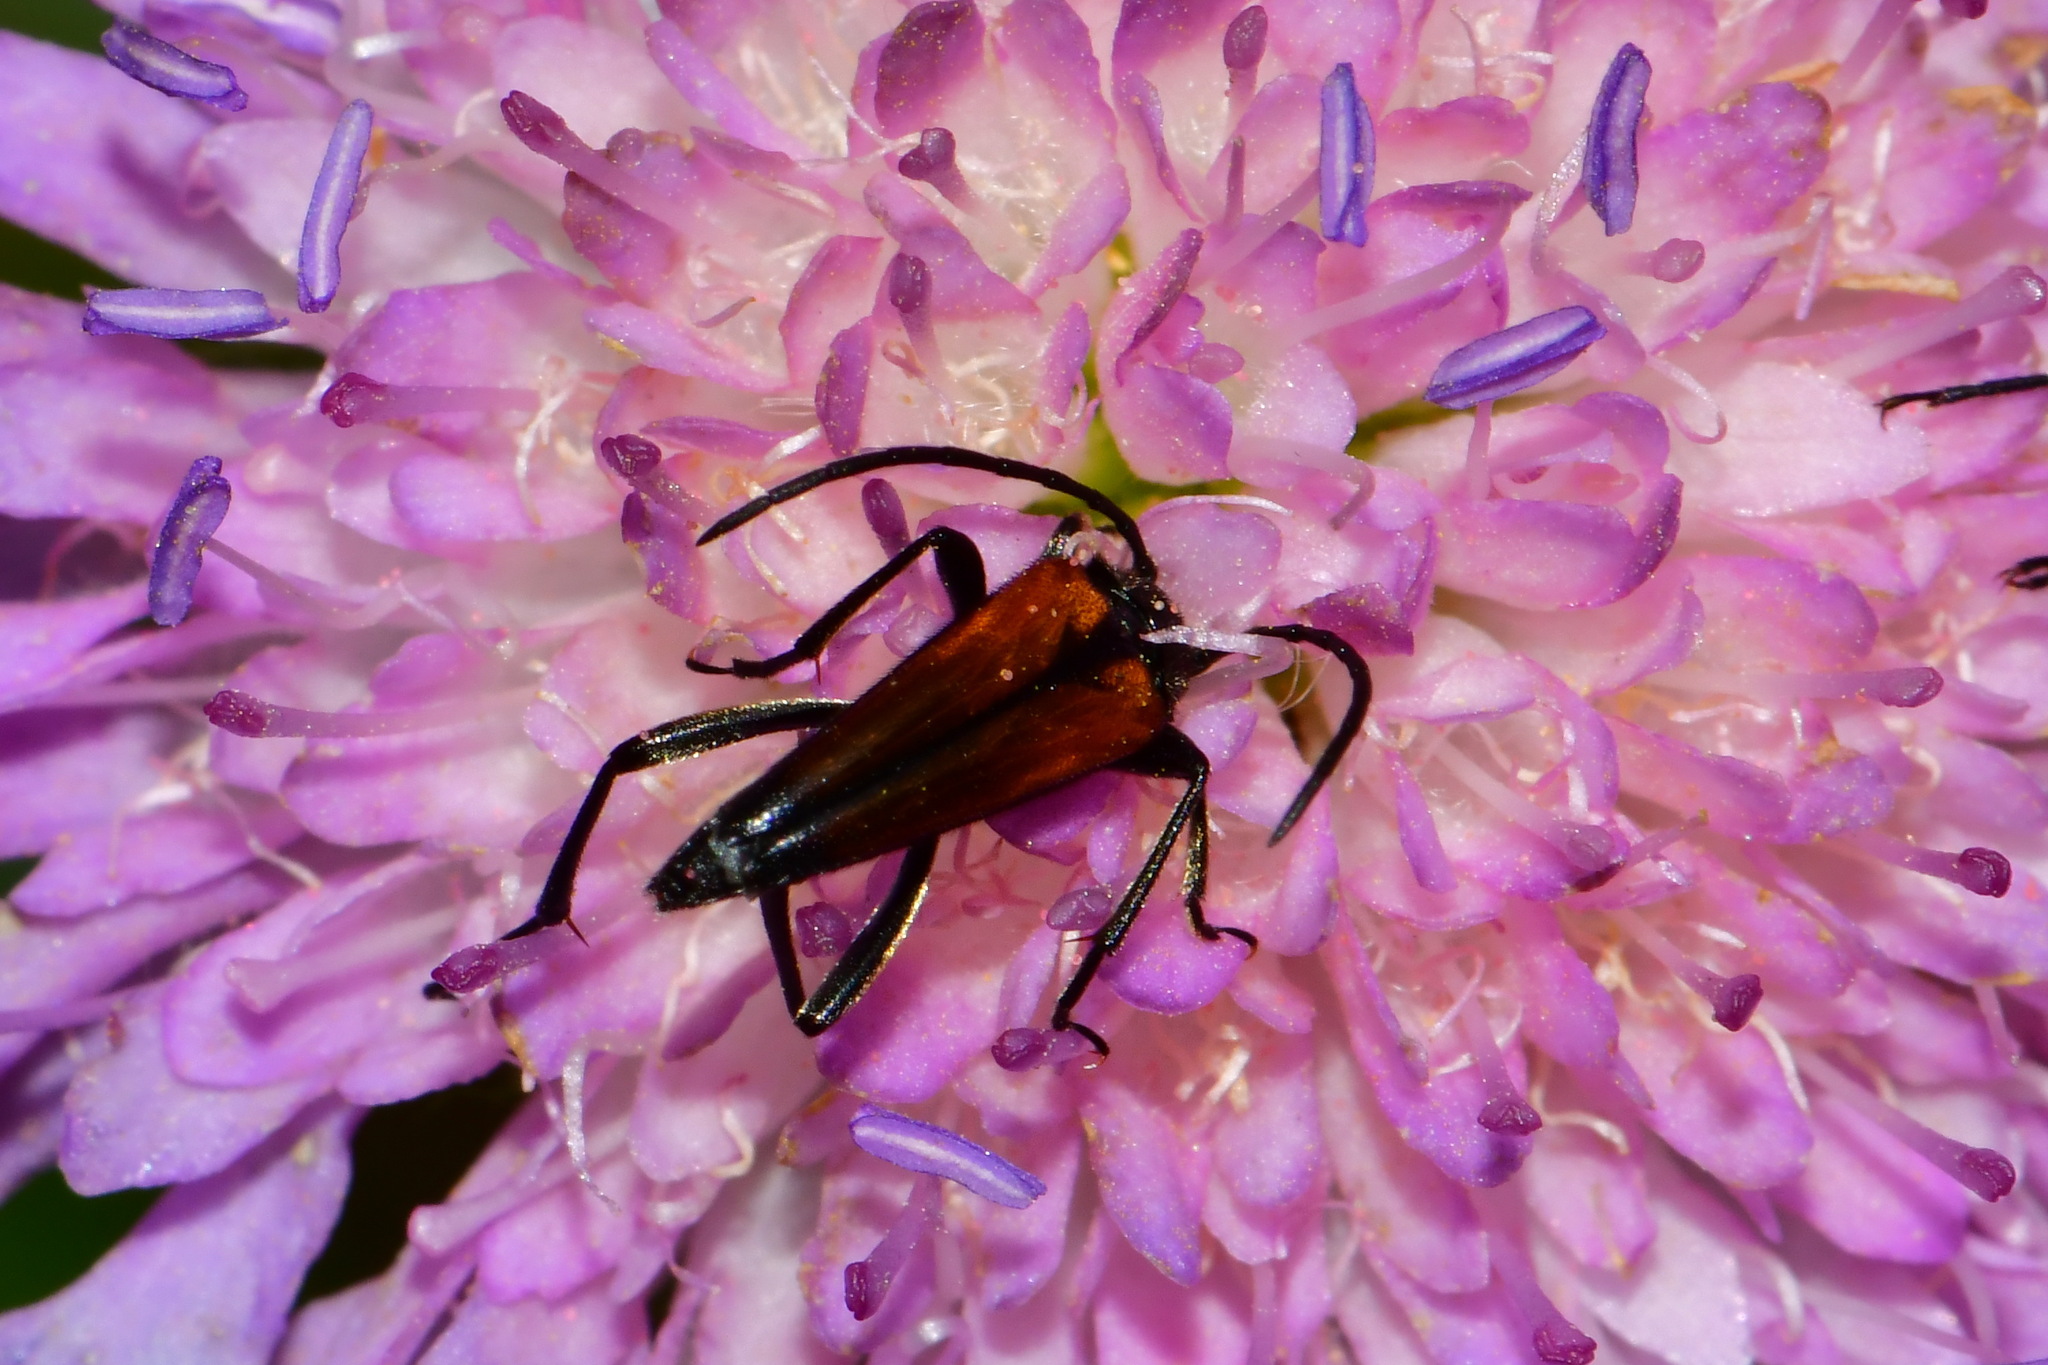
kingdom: Animalia
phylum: Arthropoda
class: Insecta
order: Coleoptera
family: Cerambycidae
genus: Stenurella
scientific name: Stenurella melanura
